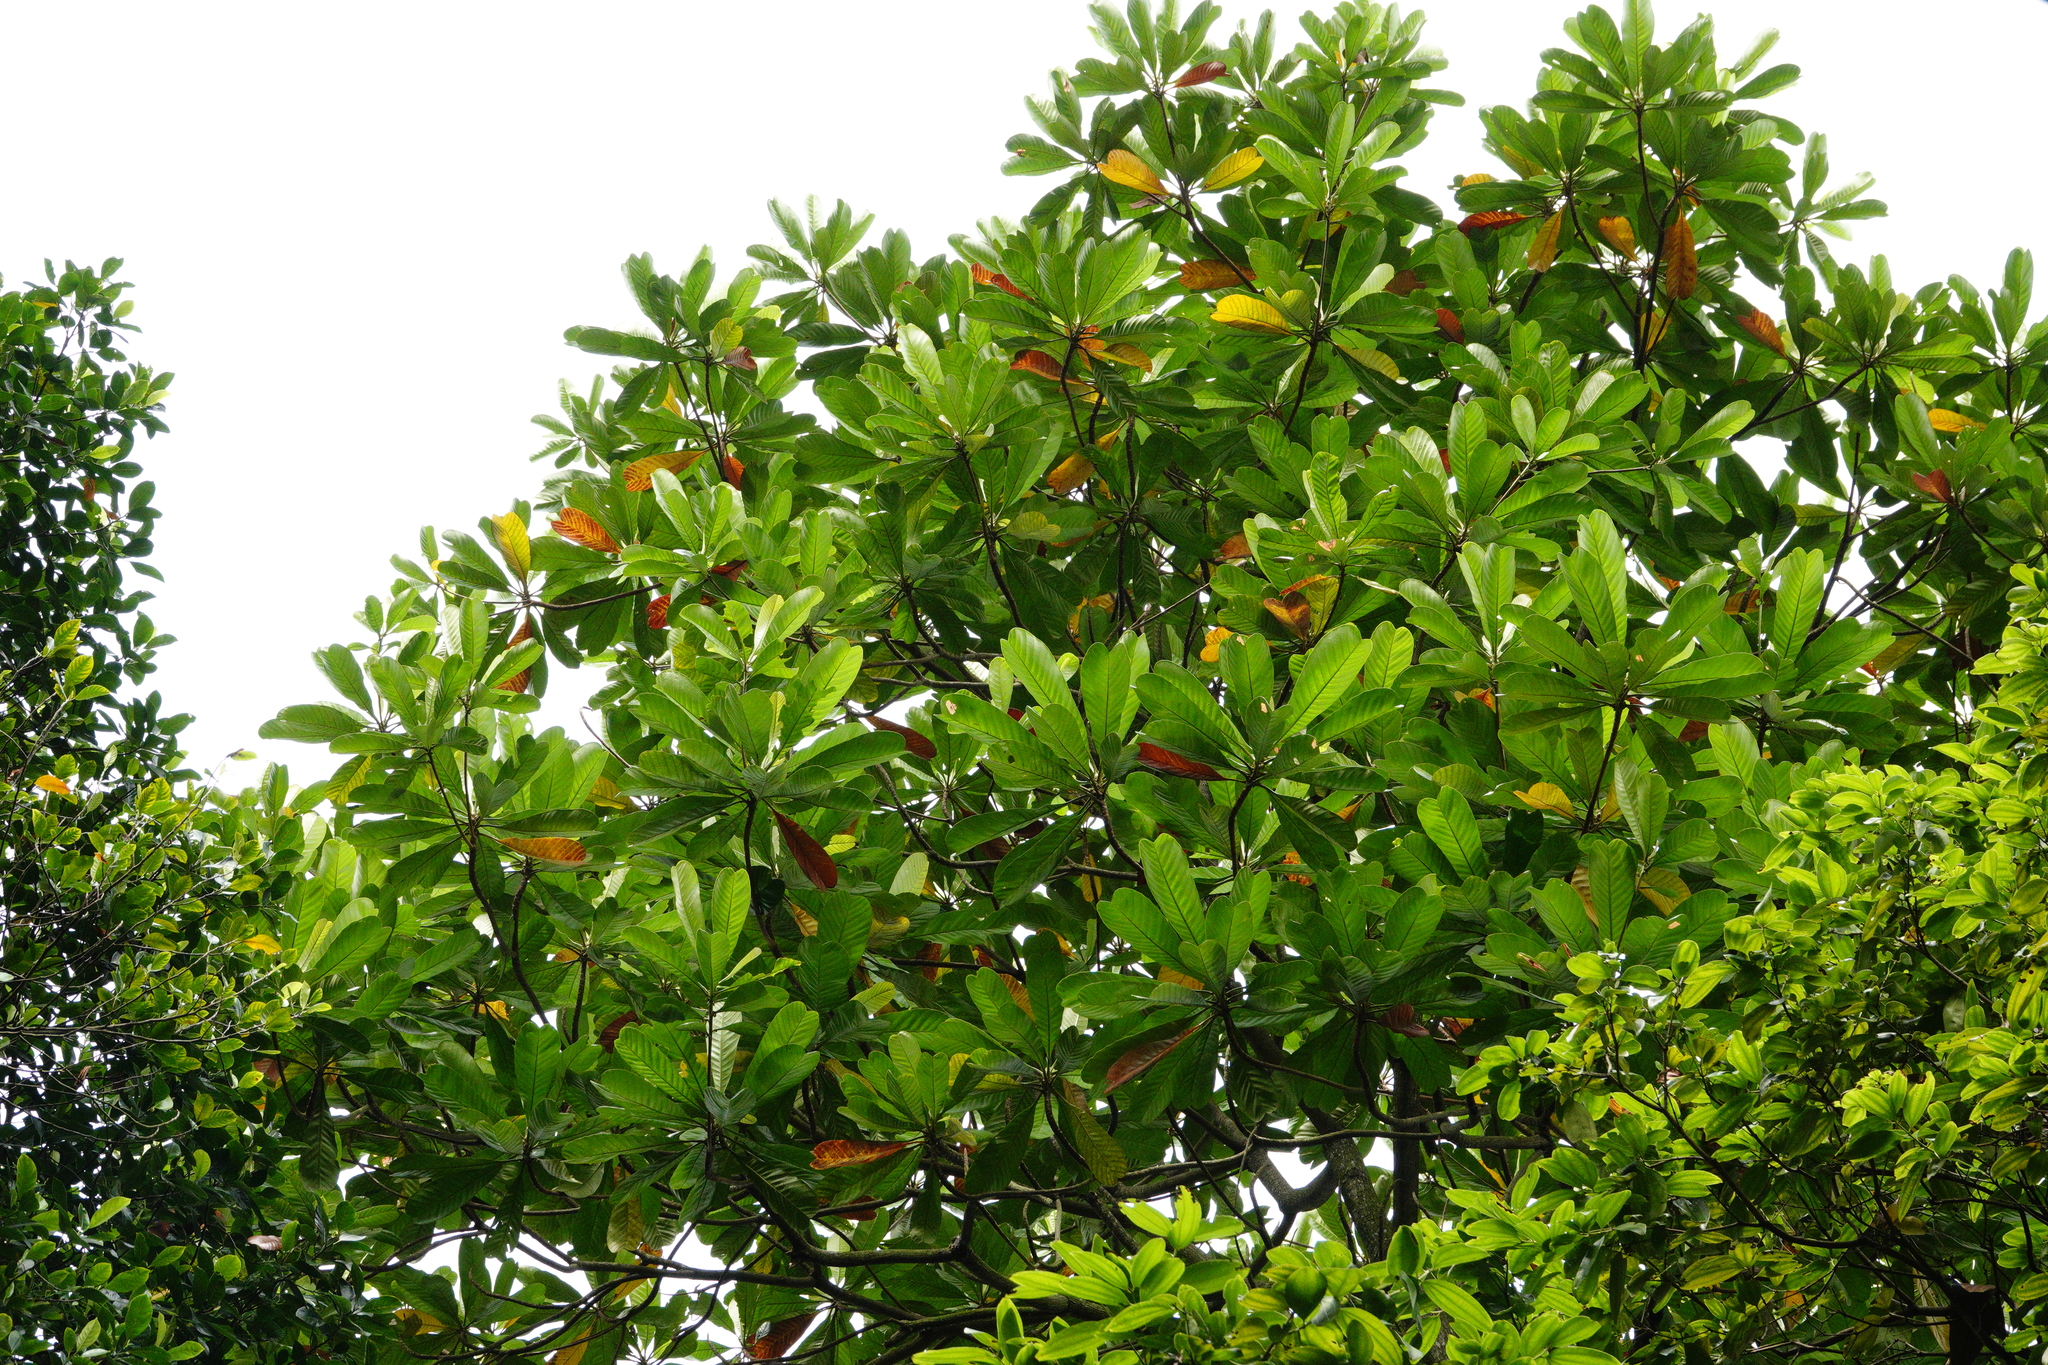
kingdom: Plantae
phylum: Tracheophyta
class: Magnoliopsida
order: Sapindales
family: Anacardiaceae
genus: Campnosperma
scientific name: Campnosperma auriculatum
